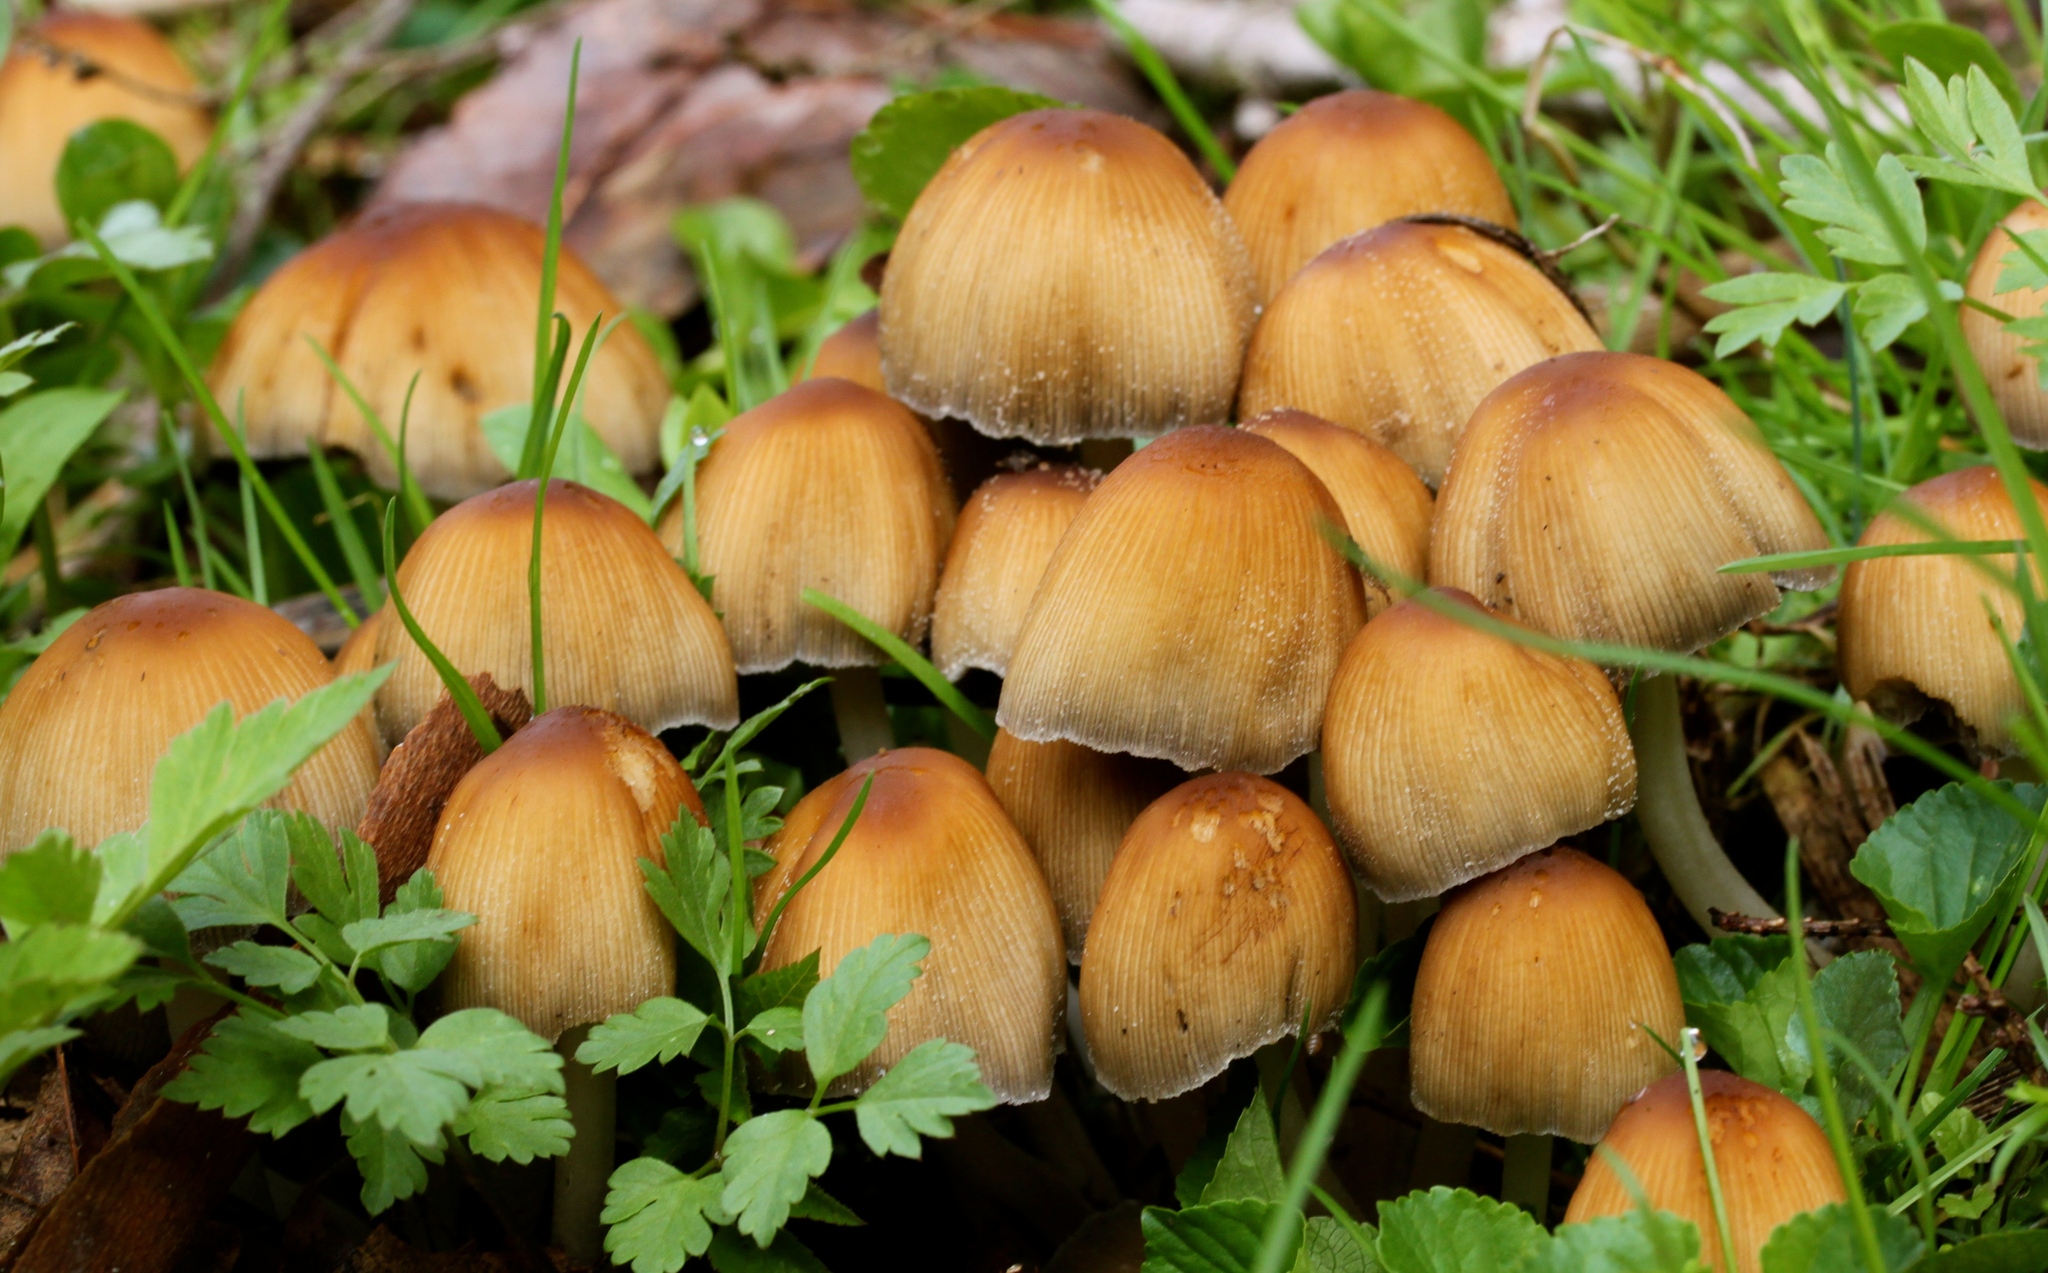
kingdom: Fungi
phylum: Basidiomycota
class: Agaricomycetes
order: Agaricales
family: Psathyrellaceae
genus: Coprinellus
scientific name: Coprinellus micaceus
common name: Glistening ink-cap
